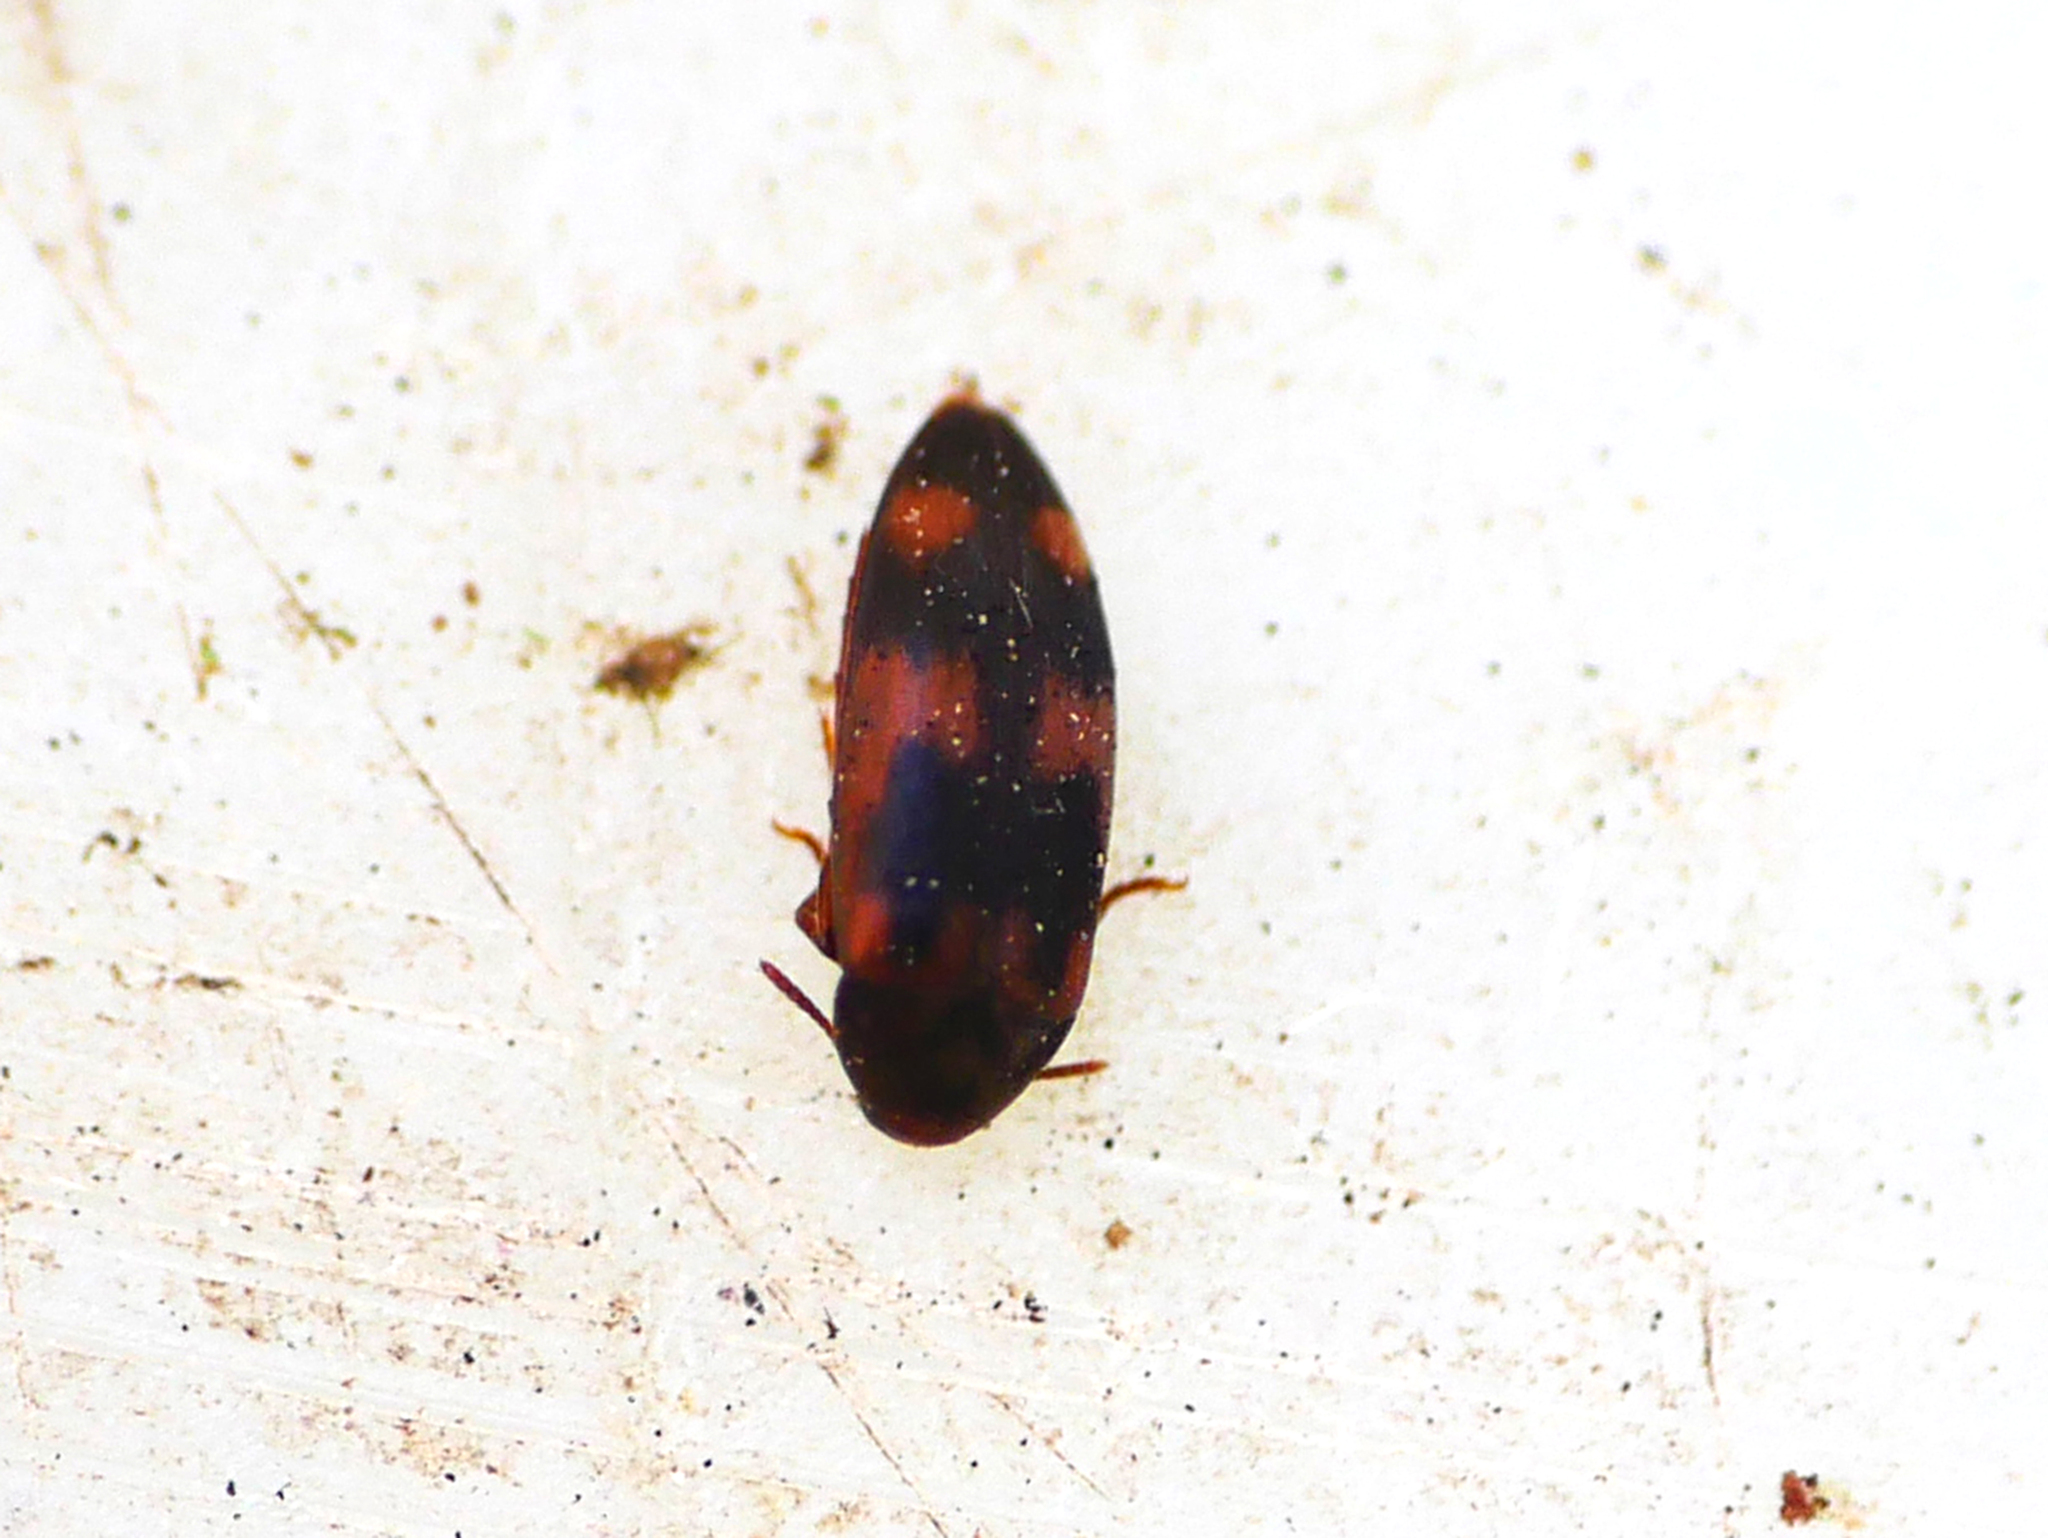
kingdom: Animalia
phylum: Arthropoda
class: Insecta
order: Coleoptera
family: Melandryidae
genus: Orchesia
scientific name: Orchesia fasciata
